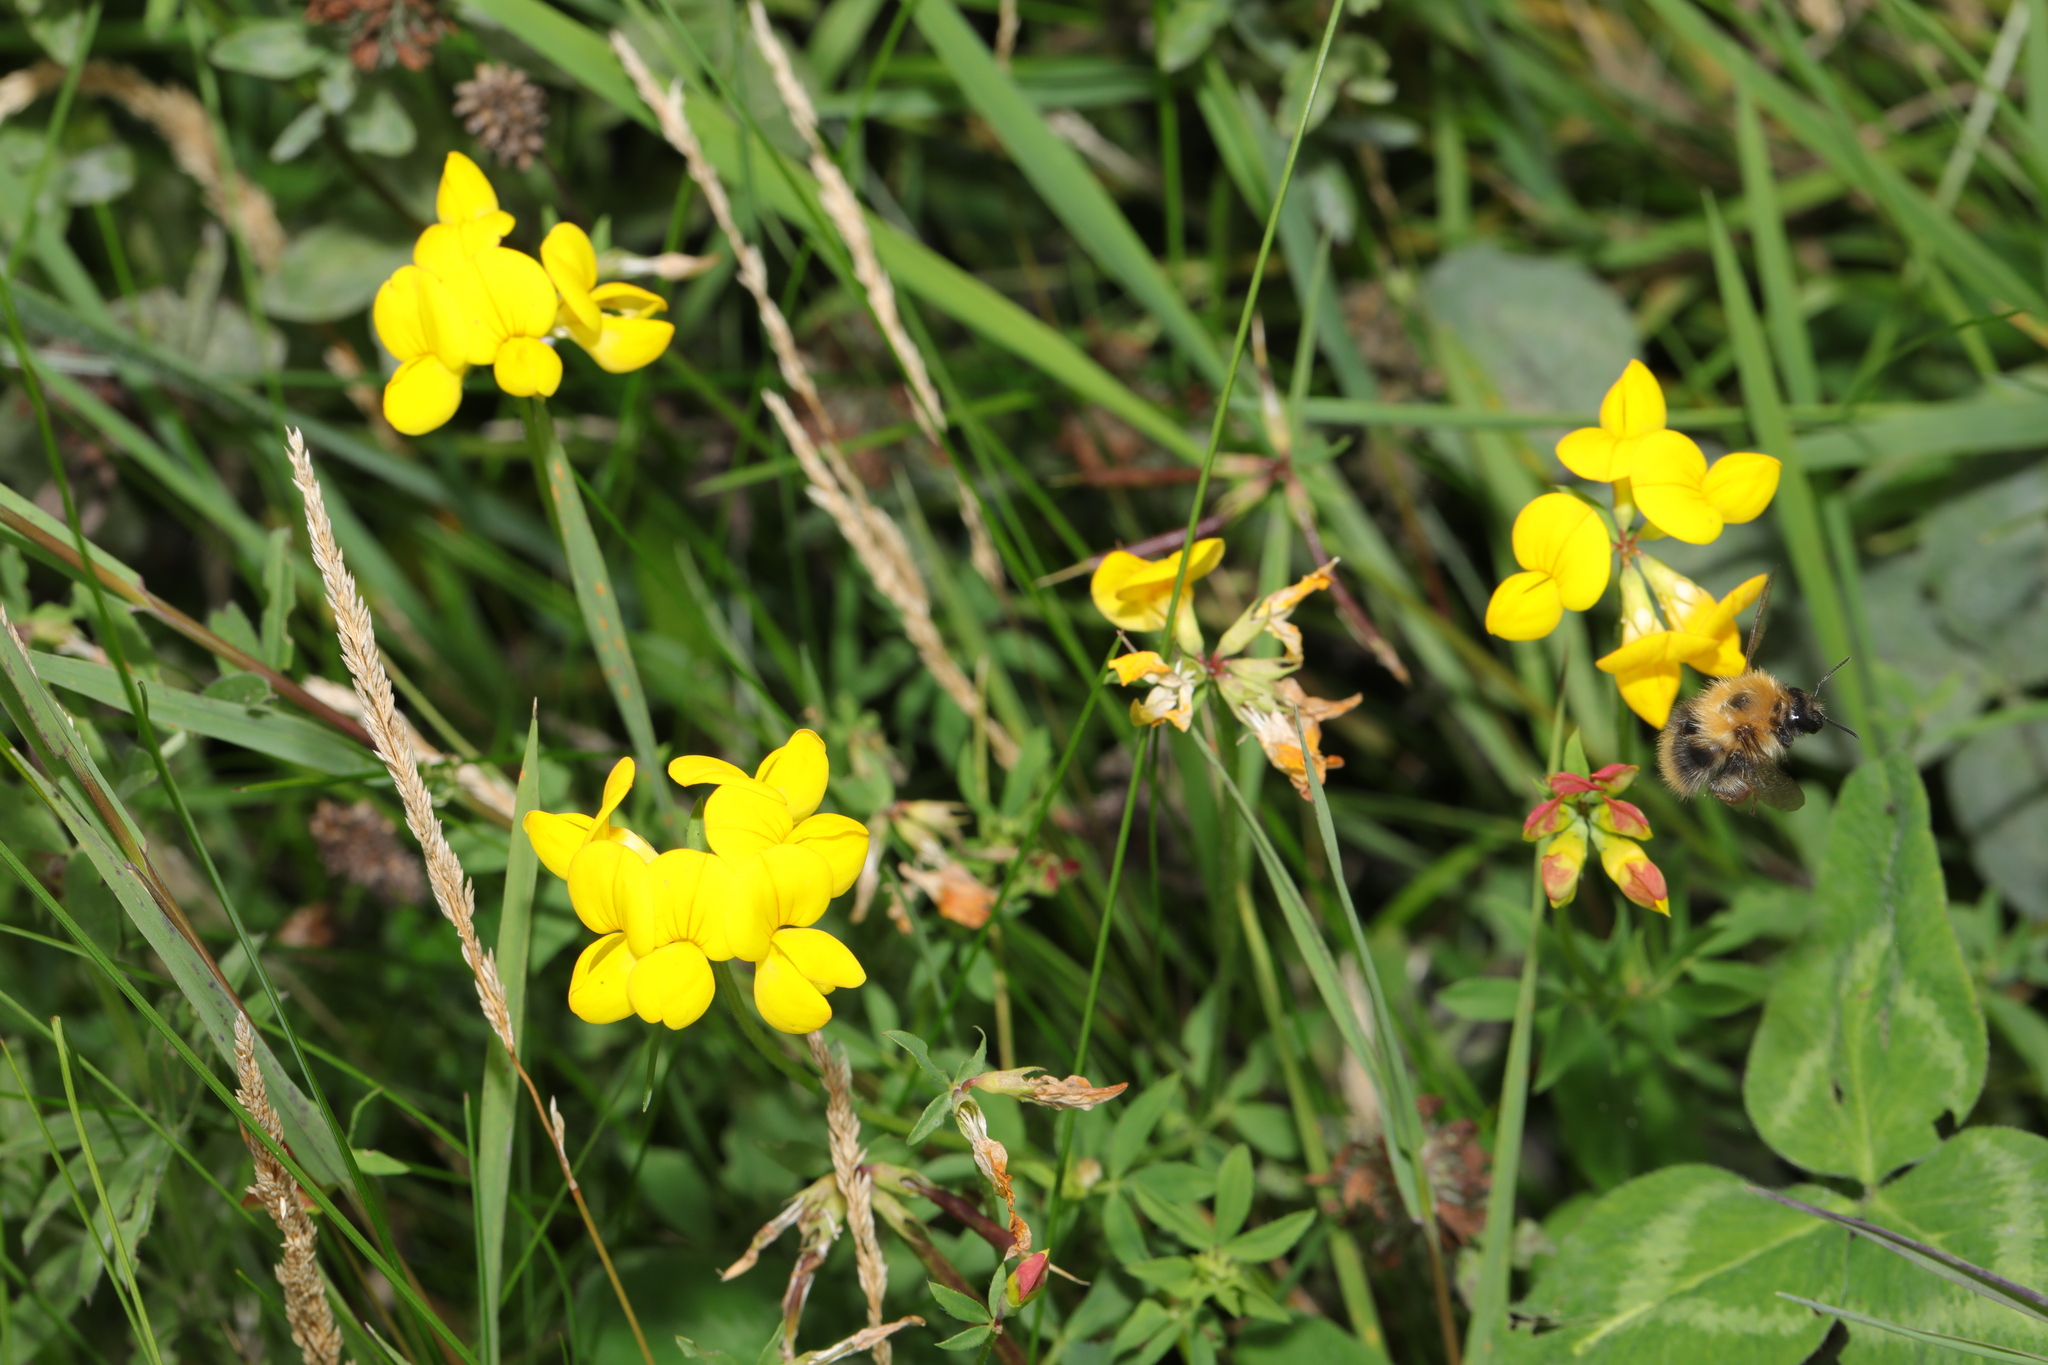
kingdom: Plantae
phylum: Tracheophyta
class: Magnoliopsida
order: Fabales
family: Fabaceae
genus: Lotus
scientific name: Lotus corniculatus
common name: Common bird's-foot-trefoil
